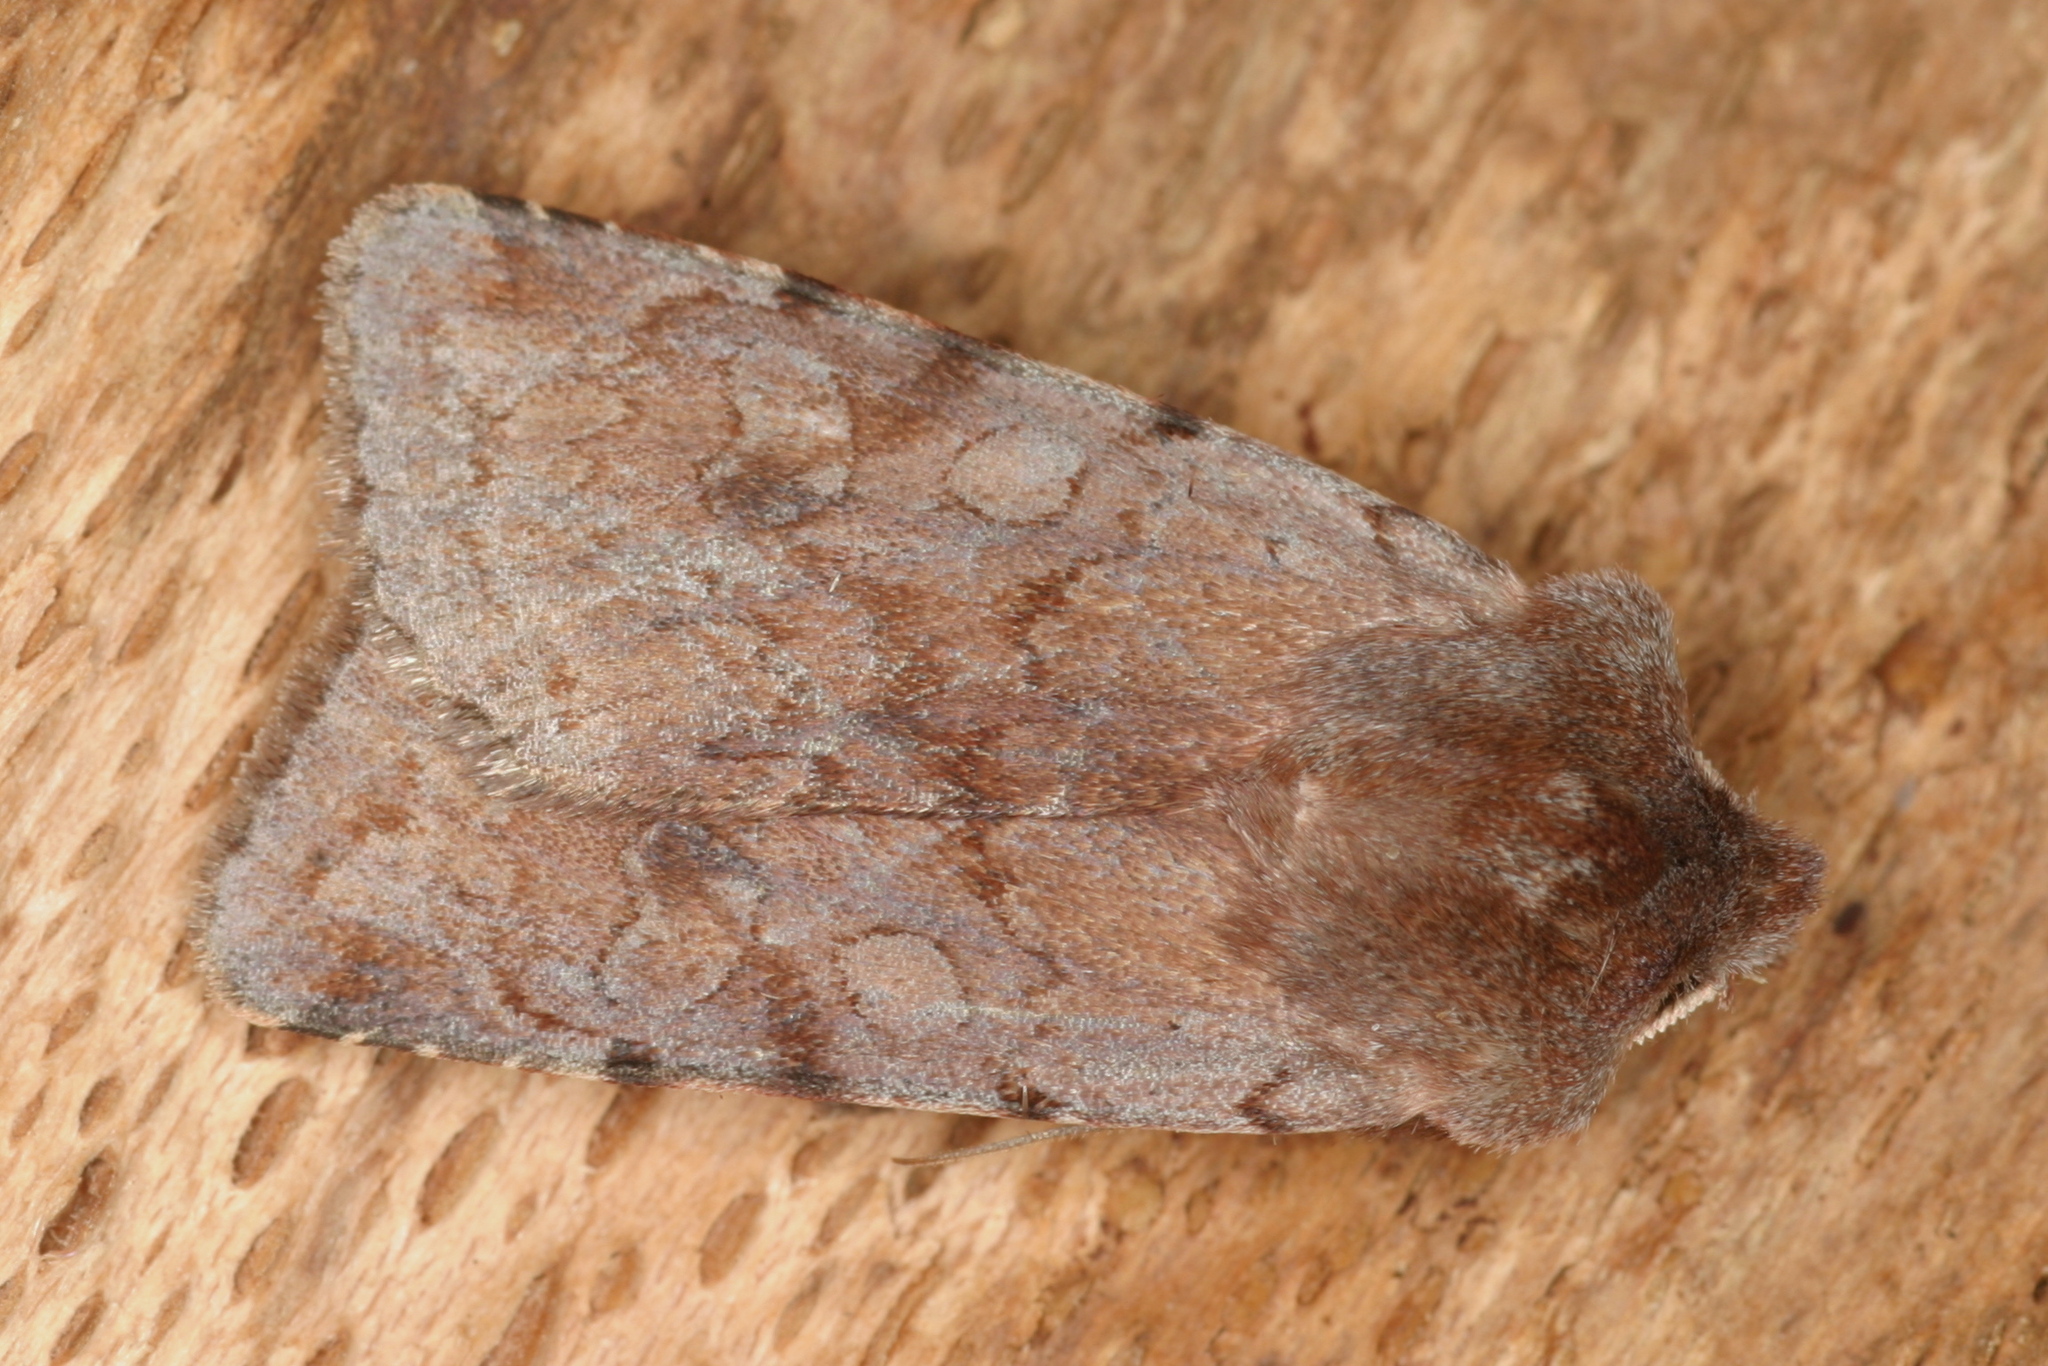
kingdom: Animalia
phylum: Arthropoda
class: Insecta
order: Lepidoptera
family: Noctuidae
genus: Cerastis
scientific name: Cerastis rubricosa
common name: Red chestnut
